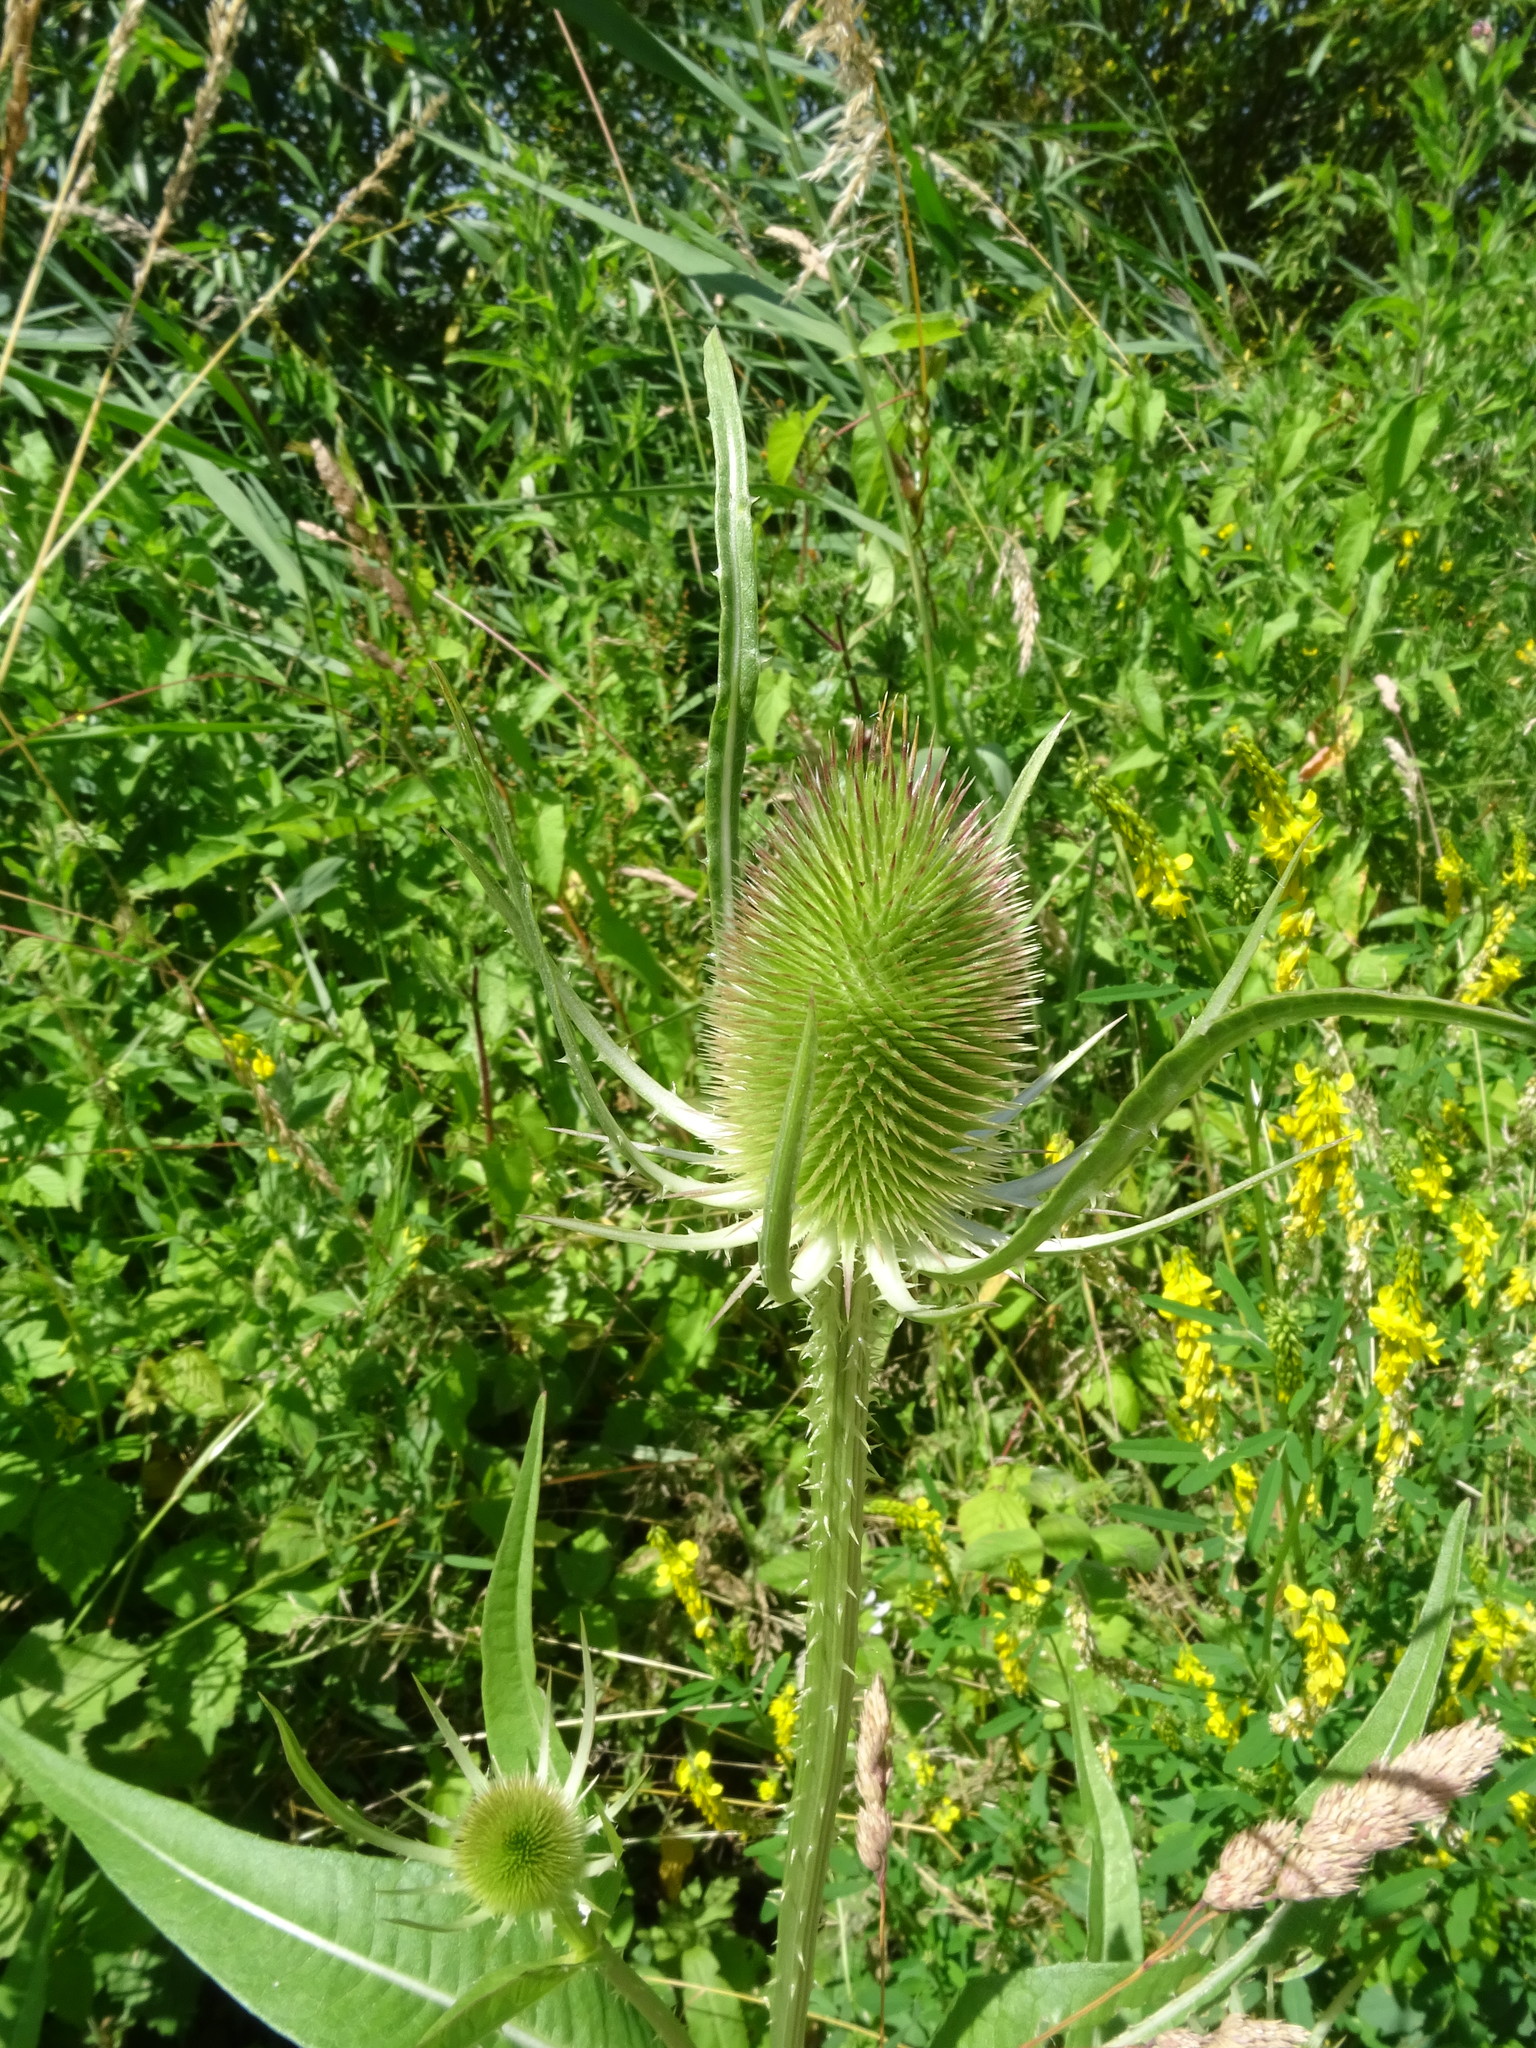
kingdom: Plantae
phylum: Tracheophyta
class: Magnoliopsida
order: Dipsacales
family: Caprifoliaceae
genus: Dipsacus
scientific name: Dipsacus fullonum
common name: Teasel
